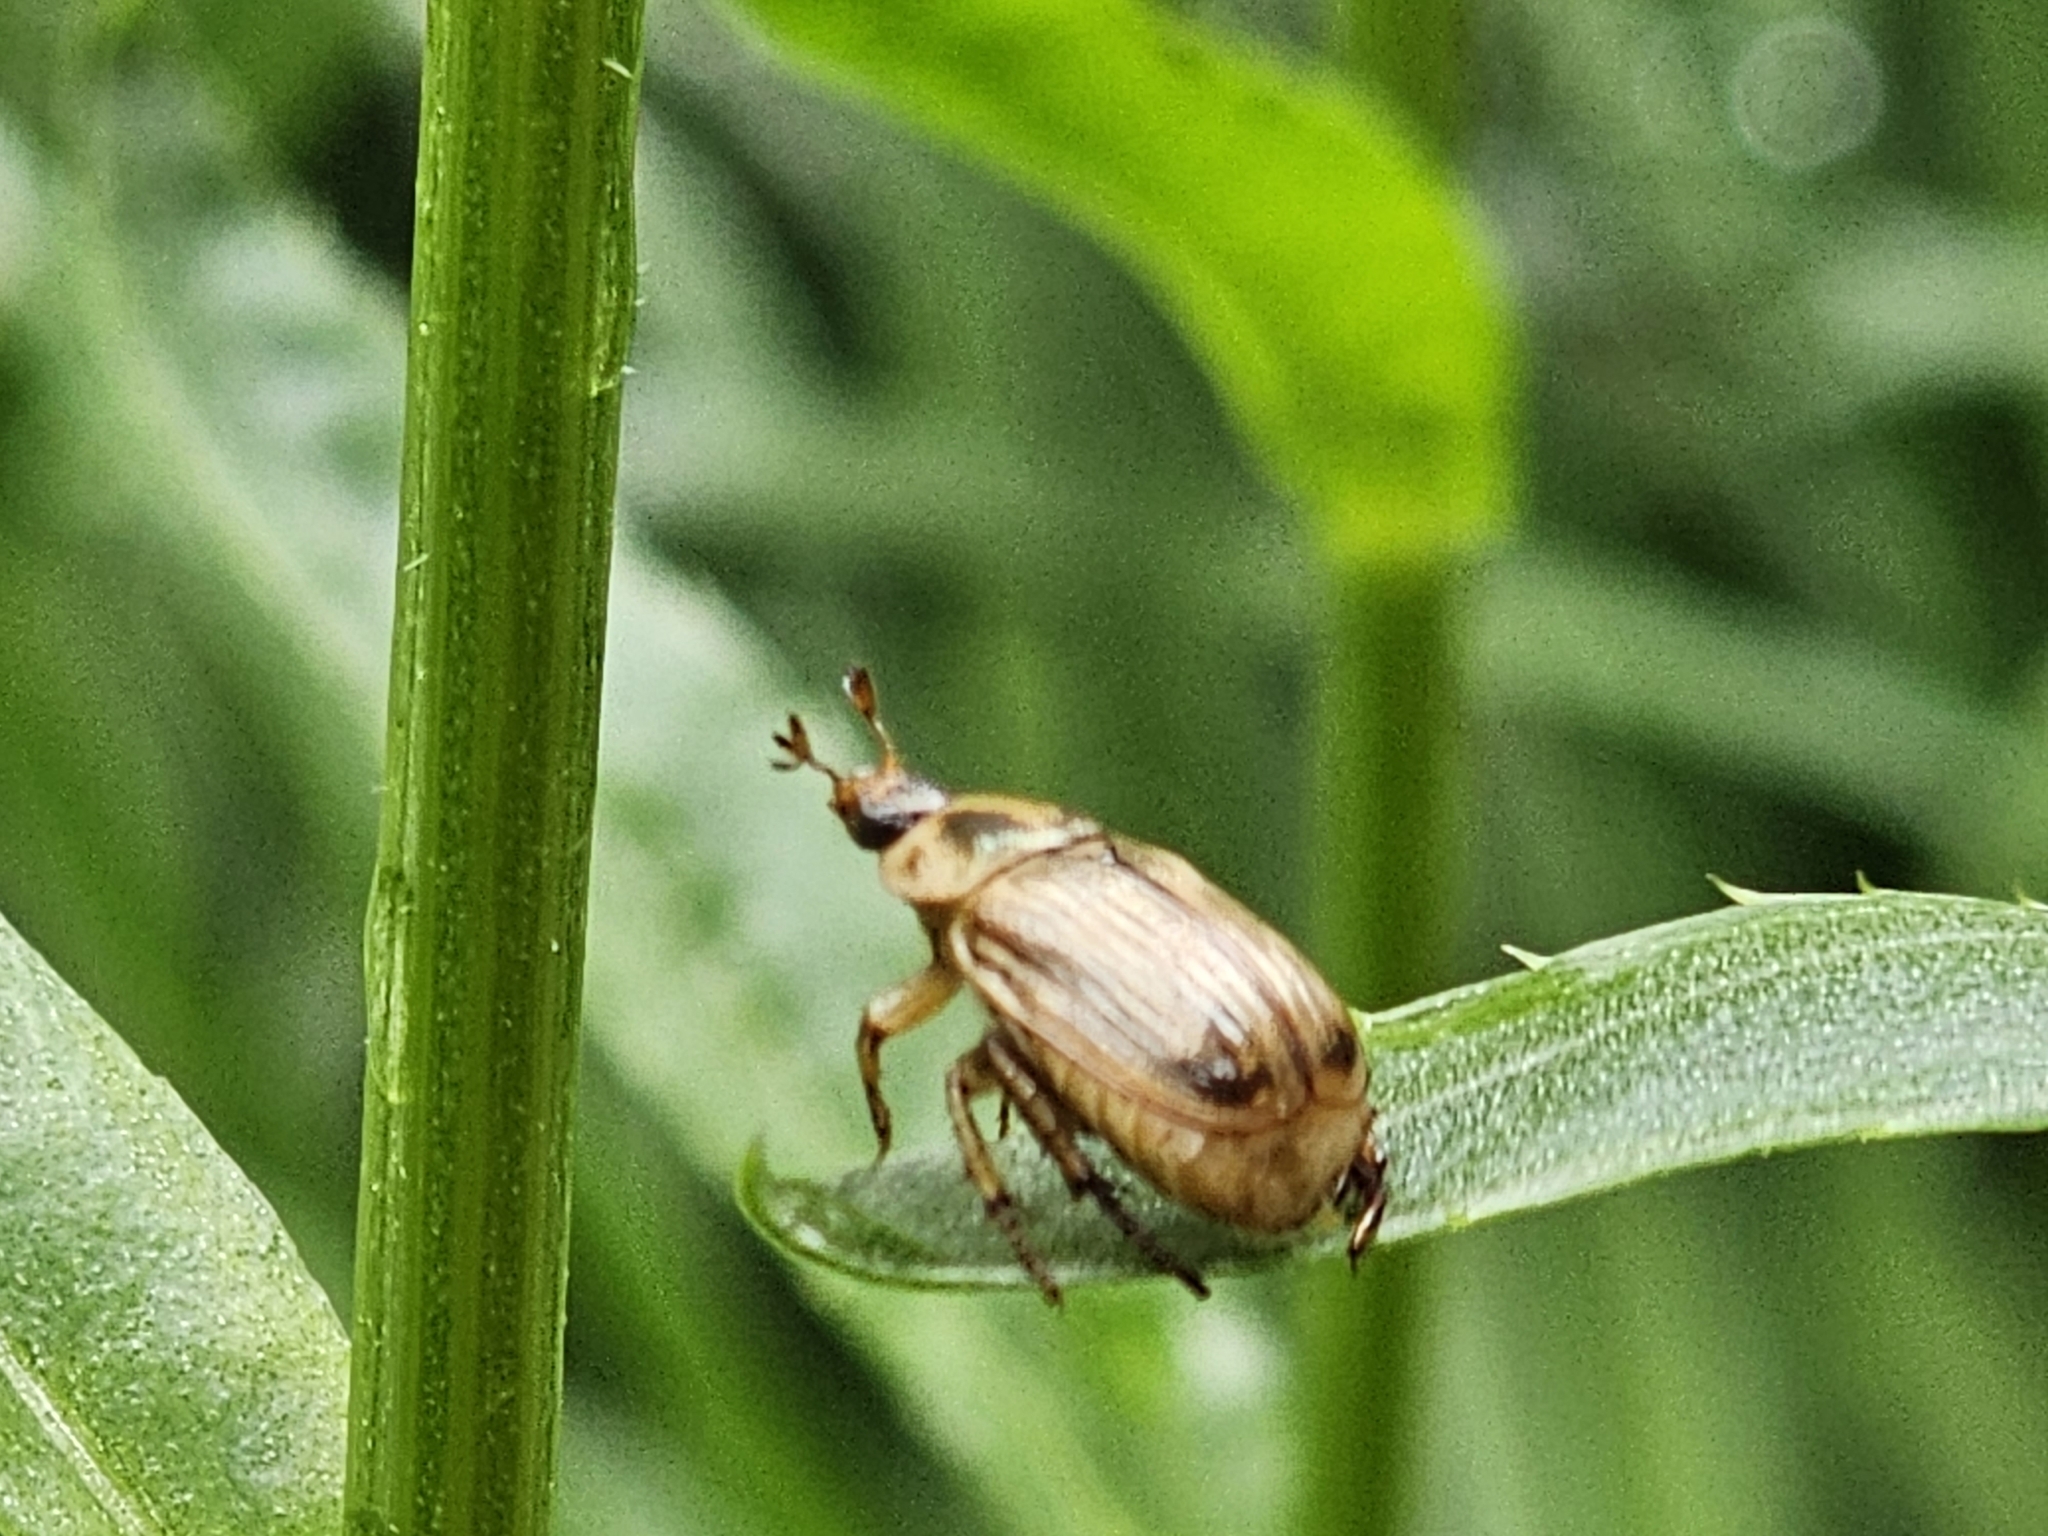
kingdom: Animalia
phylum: Arthropoda
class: Insecta
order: Coleoptera
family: Scarabaeidae
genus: Exomala
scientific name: Exomala orientalis
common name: Oriental beetle
